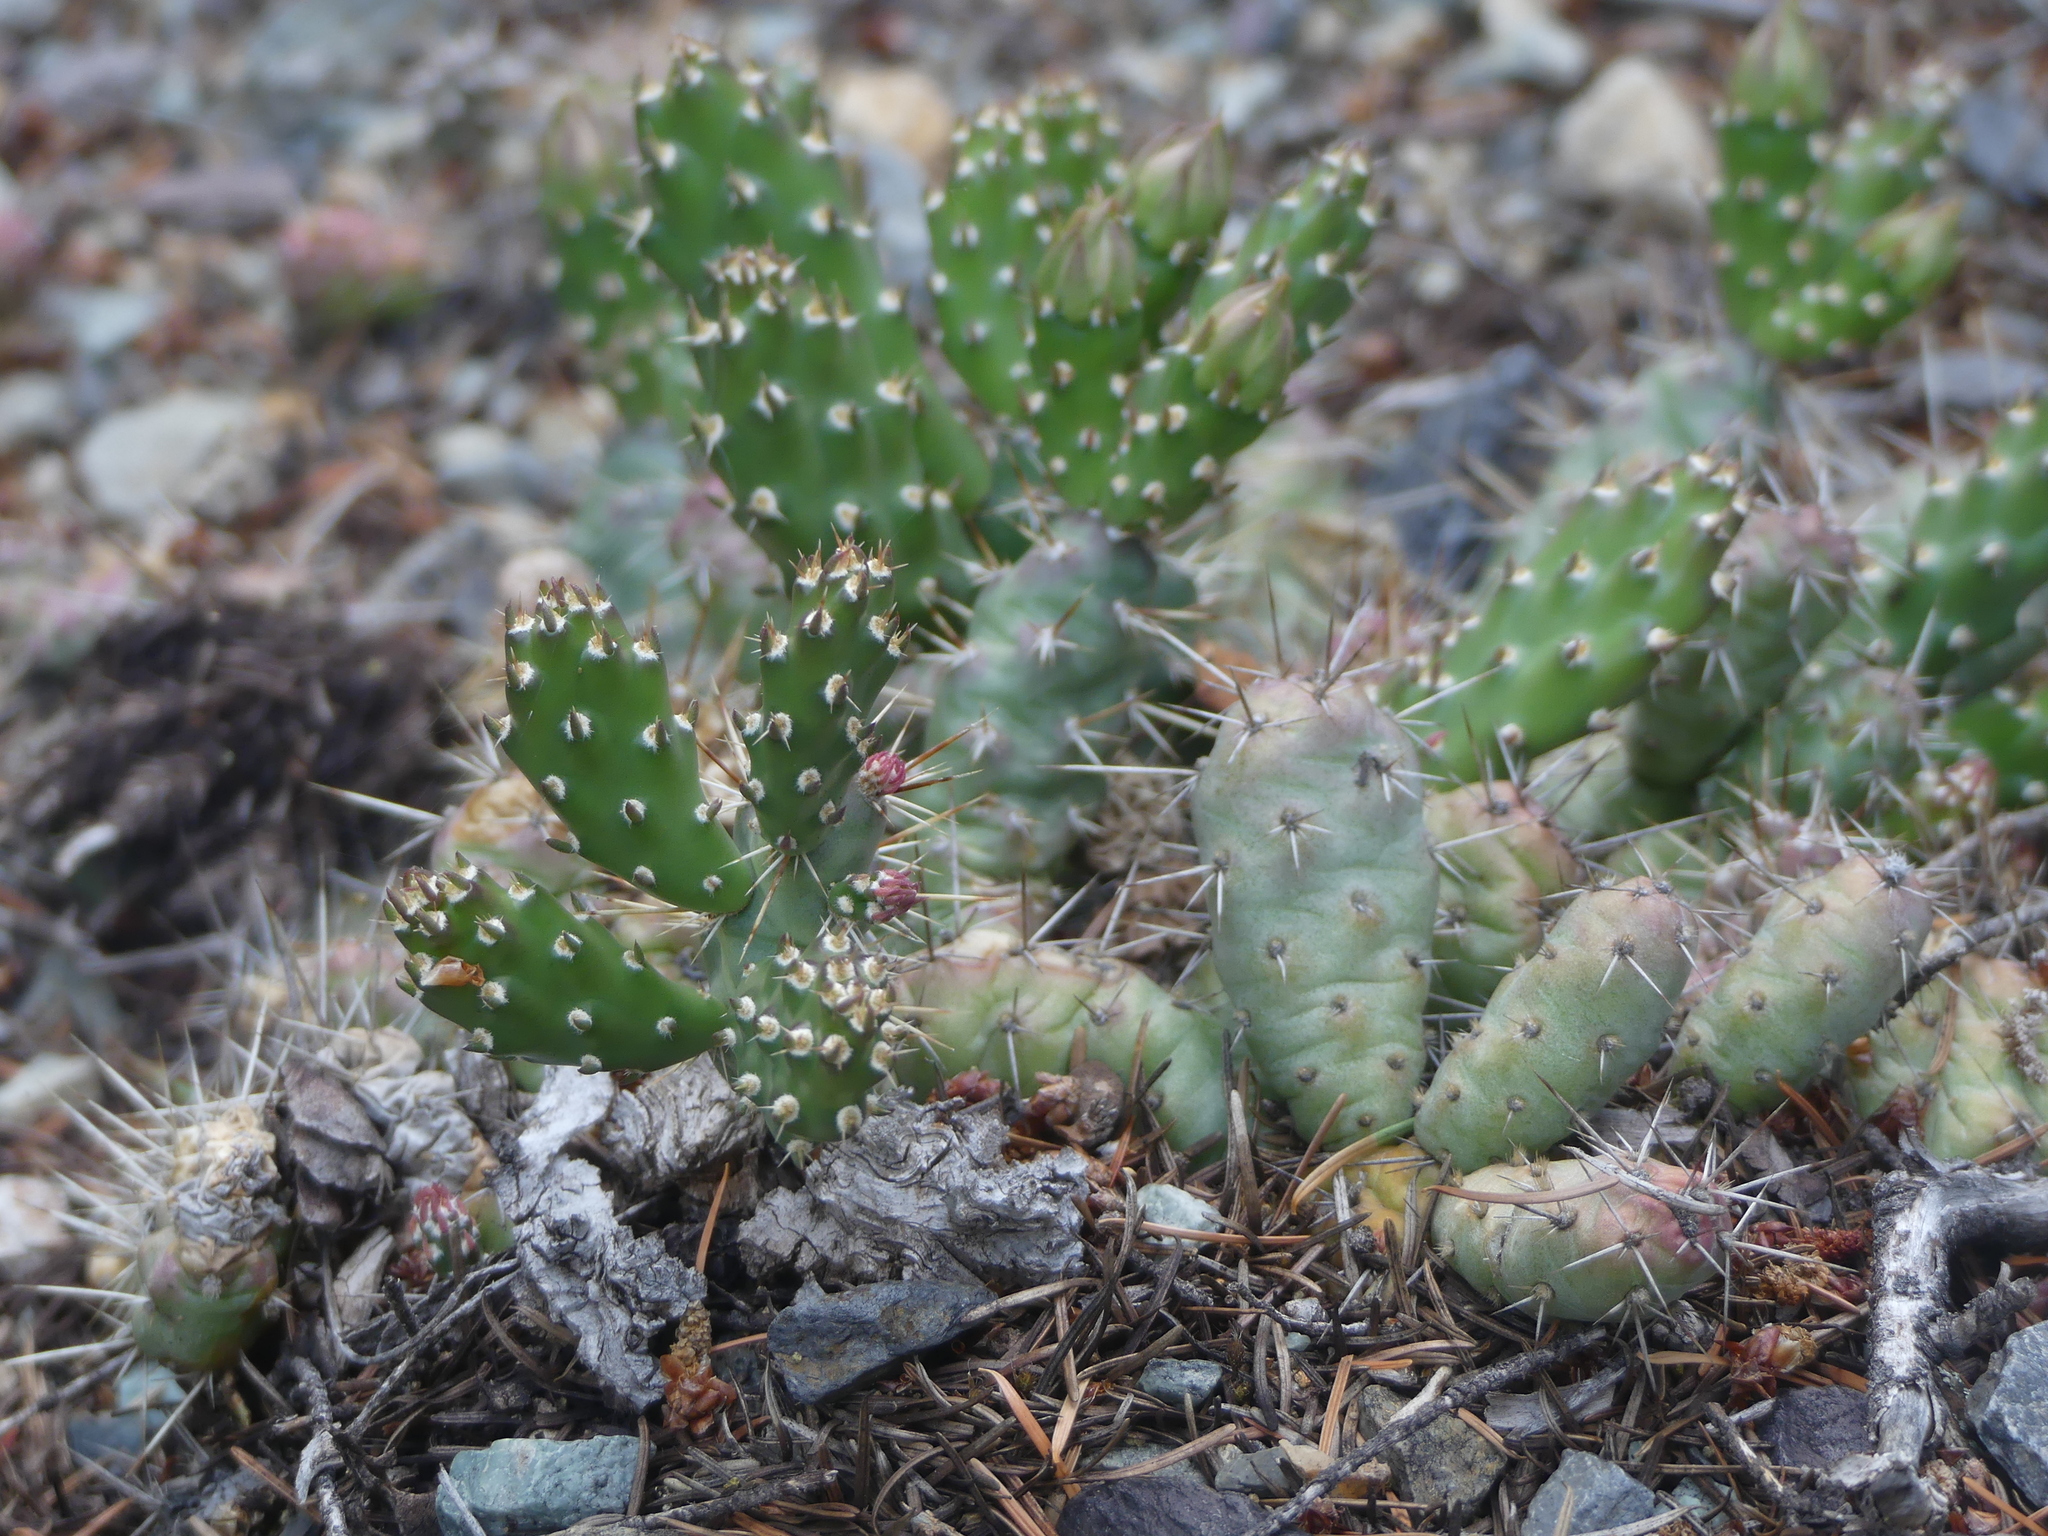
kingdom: Plantae
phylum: Tracheophyta
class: Magnoliopsida
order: Caryophyllales
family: Cactaceae
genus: Opuntia
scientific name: Opuntia fragilis
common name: Brittle cactus
